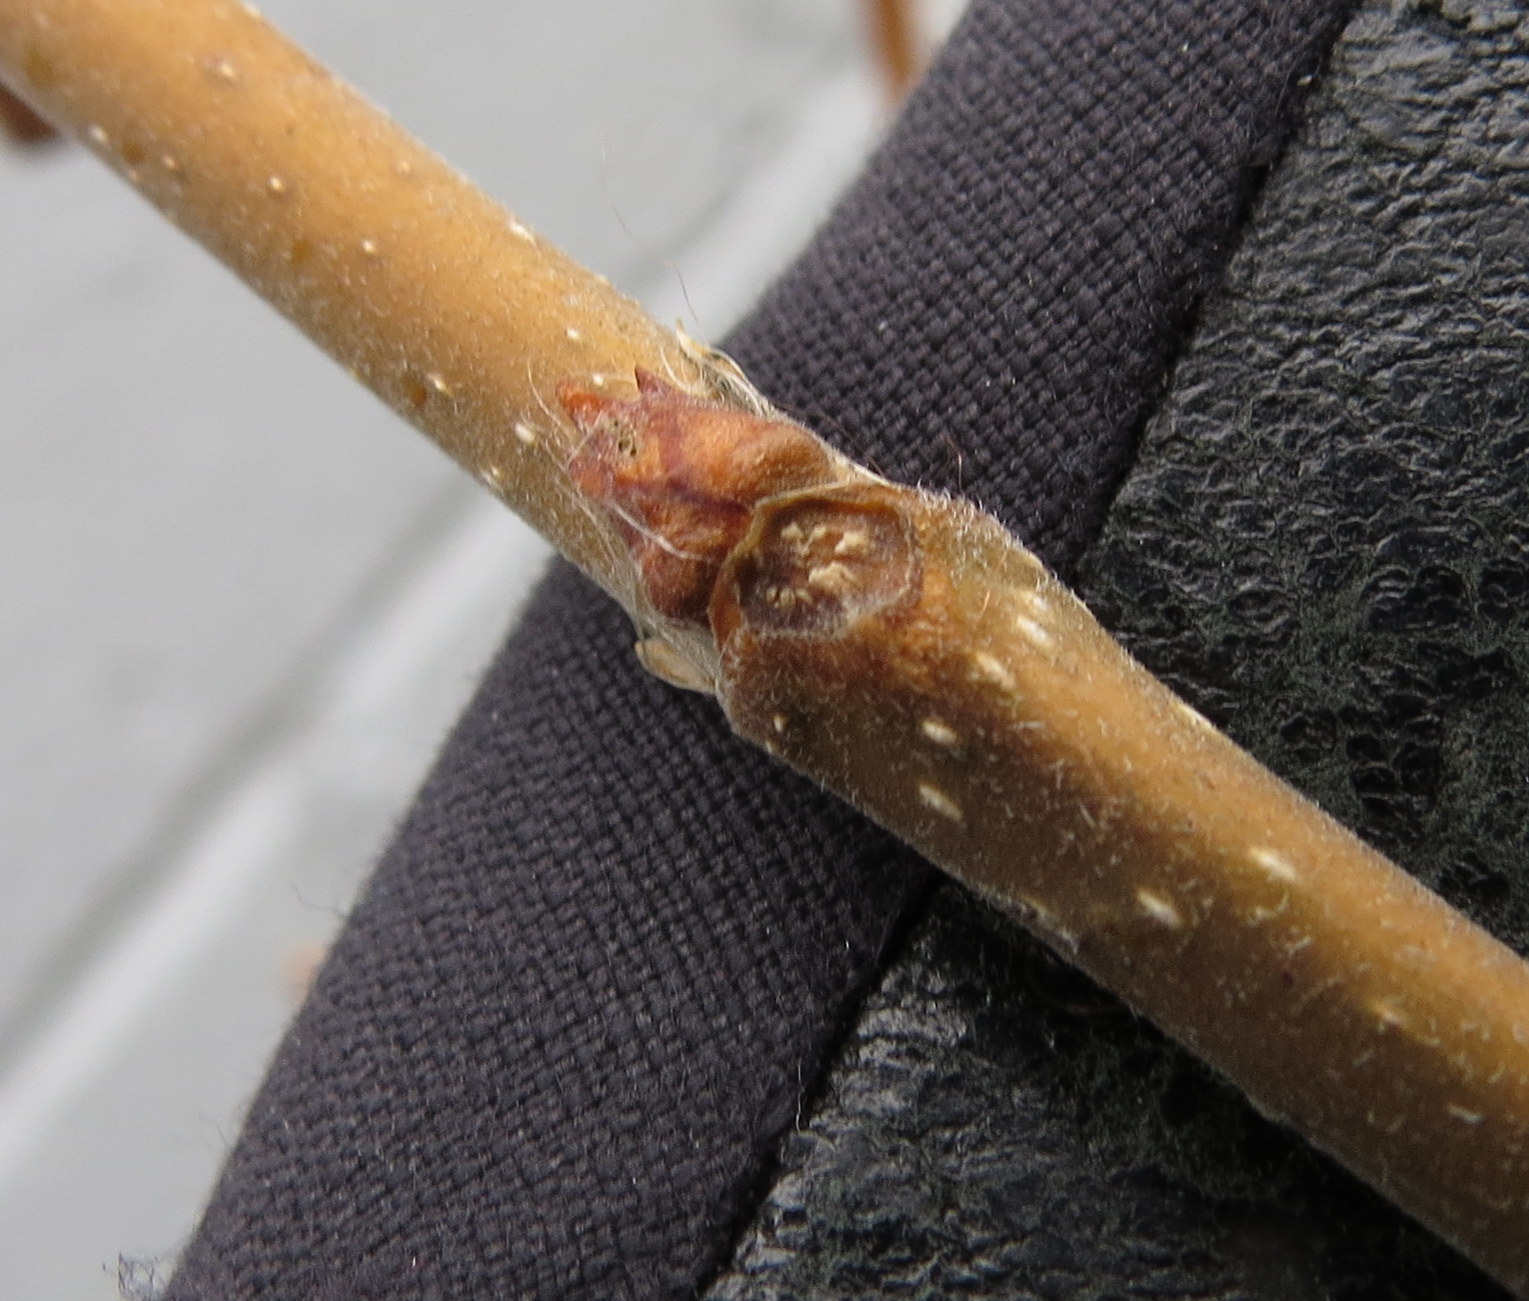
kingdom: Plantae
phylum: Tracheophyta
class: Magnoliopsida
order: Rosales
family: Moraceae
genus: Morus
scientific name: Morus alba
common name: White mulberry
